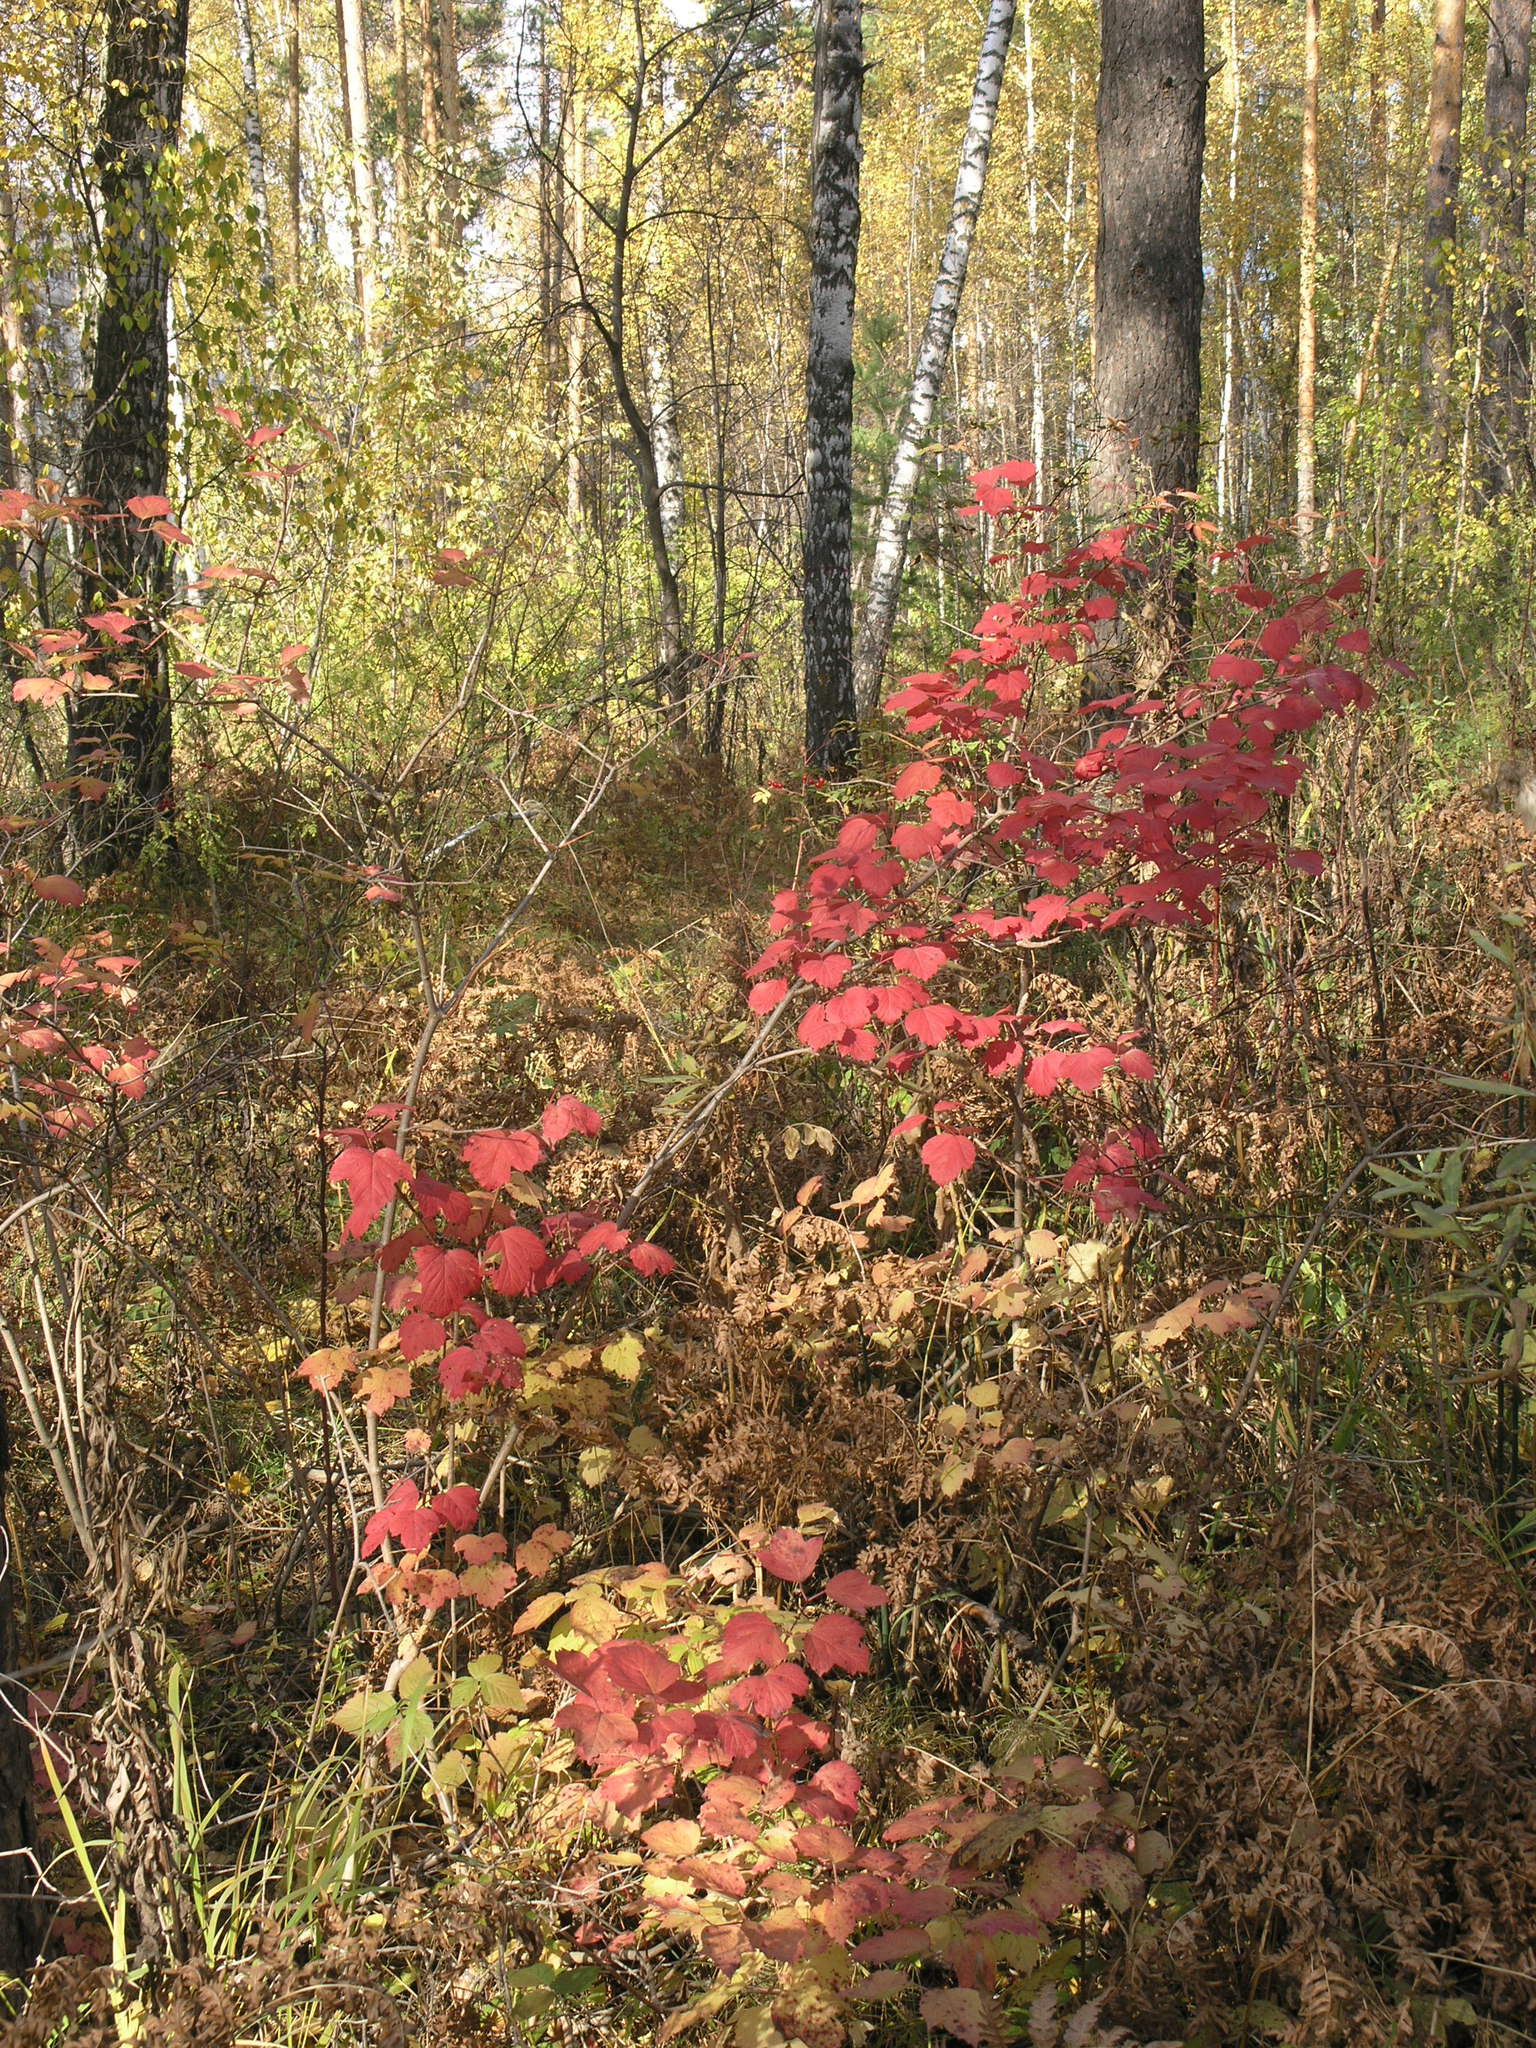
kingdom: Plantae
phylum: Tracheophyta
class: Magnoliopsida
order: Dipsacales
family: Viburnaceae
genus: Viburnum
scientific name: Viburnum opulus
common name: Guelder-rose
